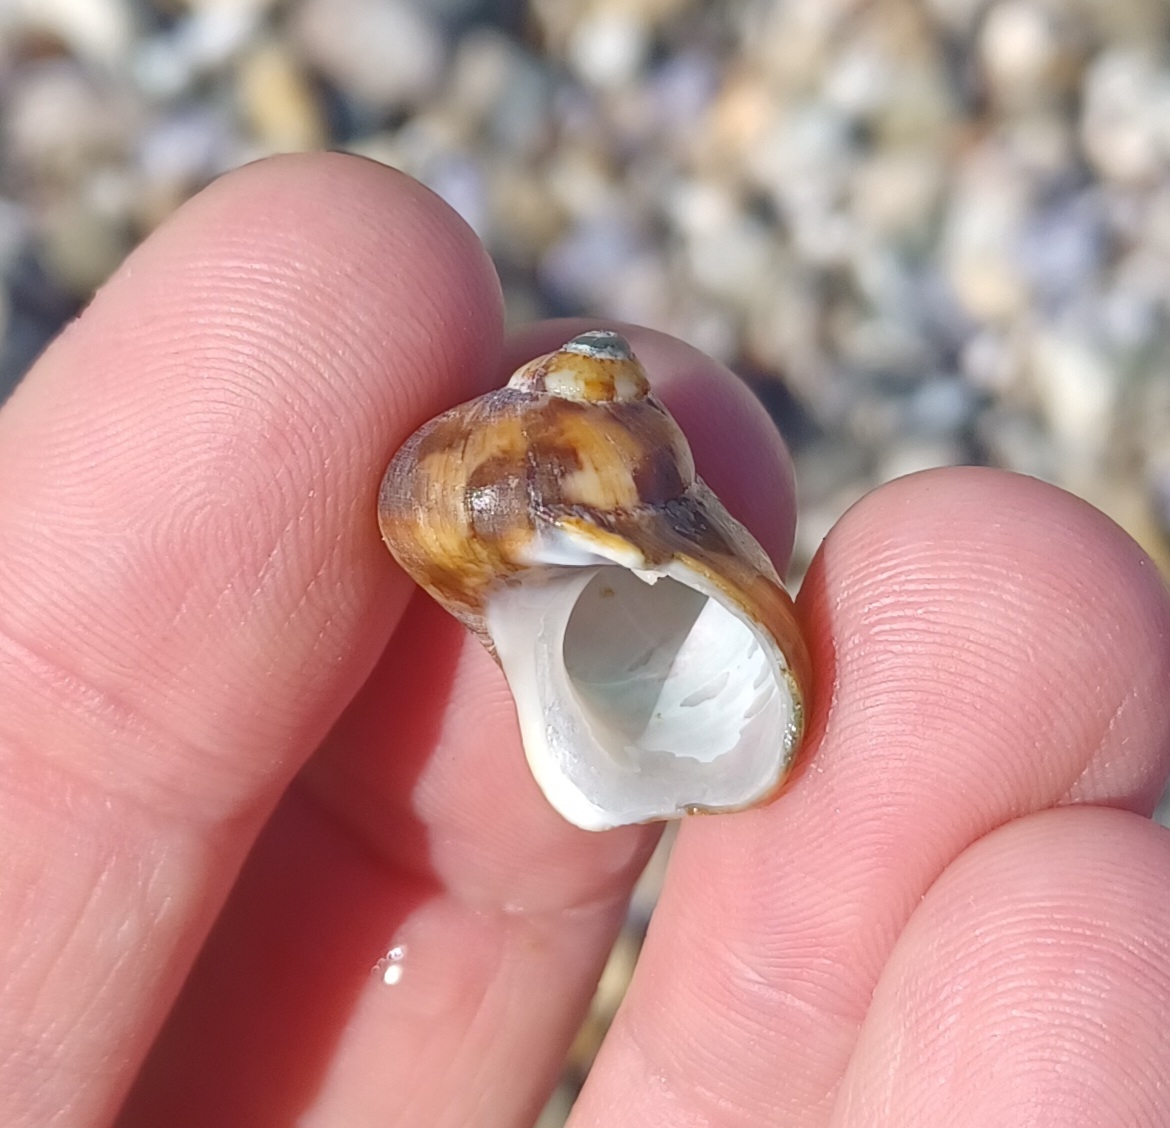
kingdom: Animalia
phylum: Mollusca
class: Gastropoda
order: Trochida
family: Turbinidae
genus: Turbo
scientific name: Turbo militaris
